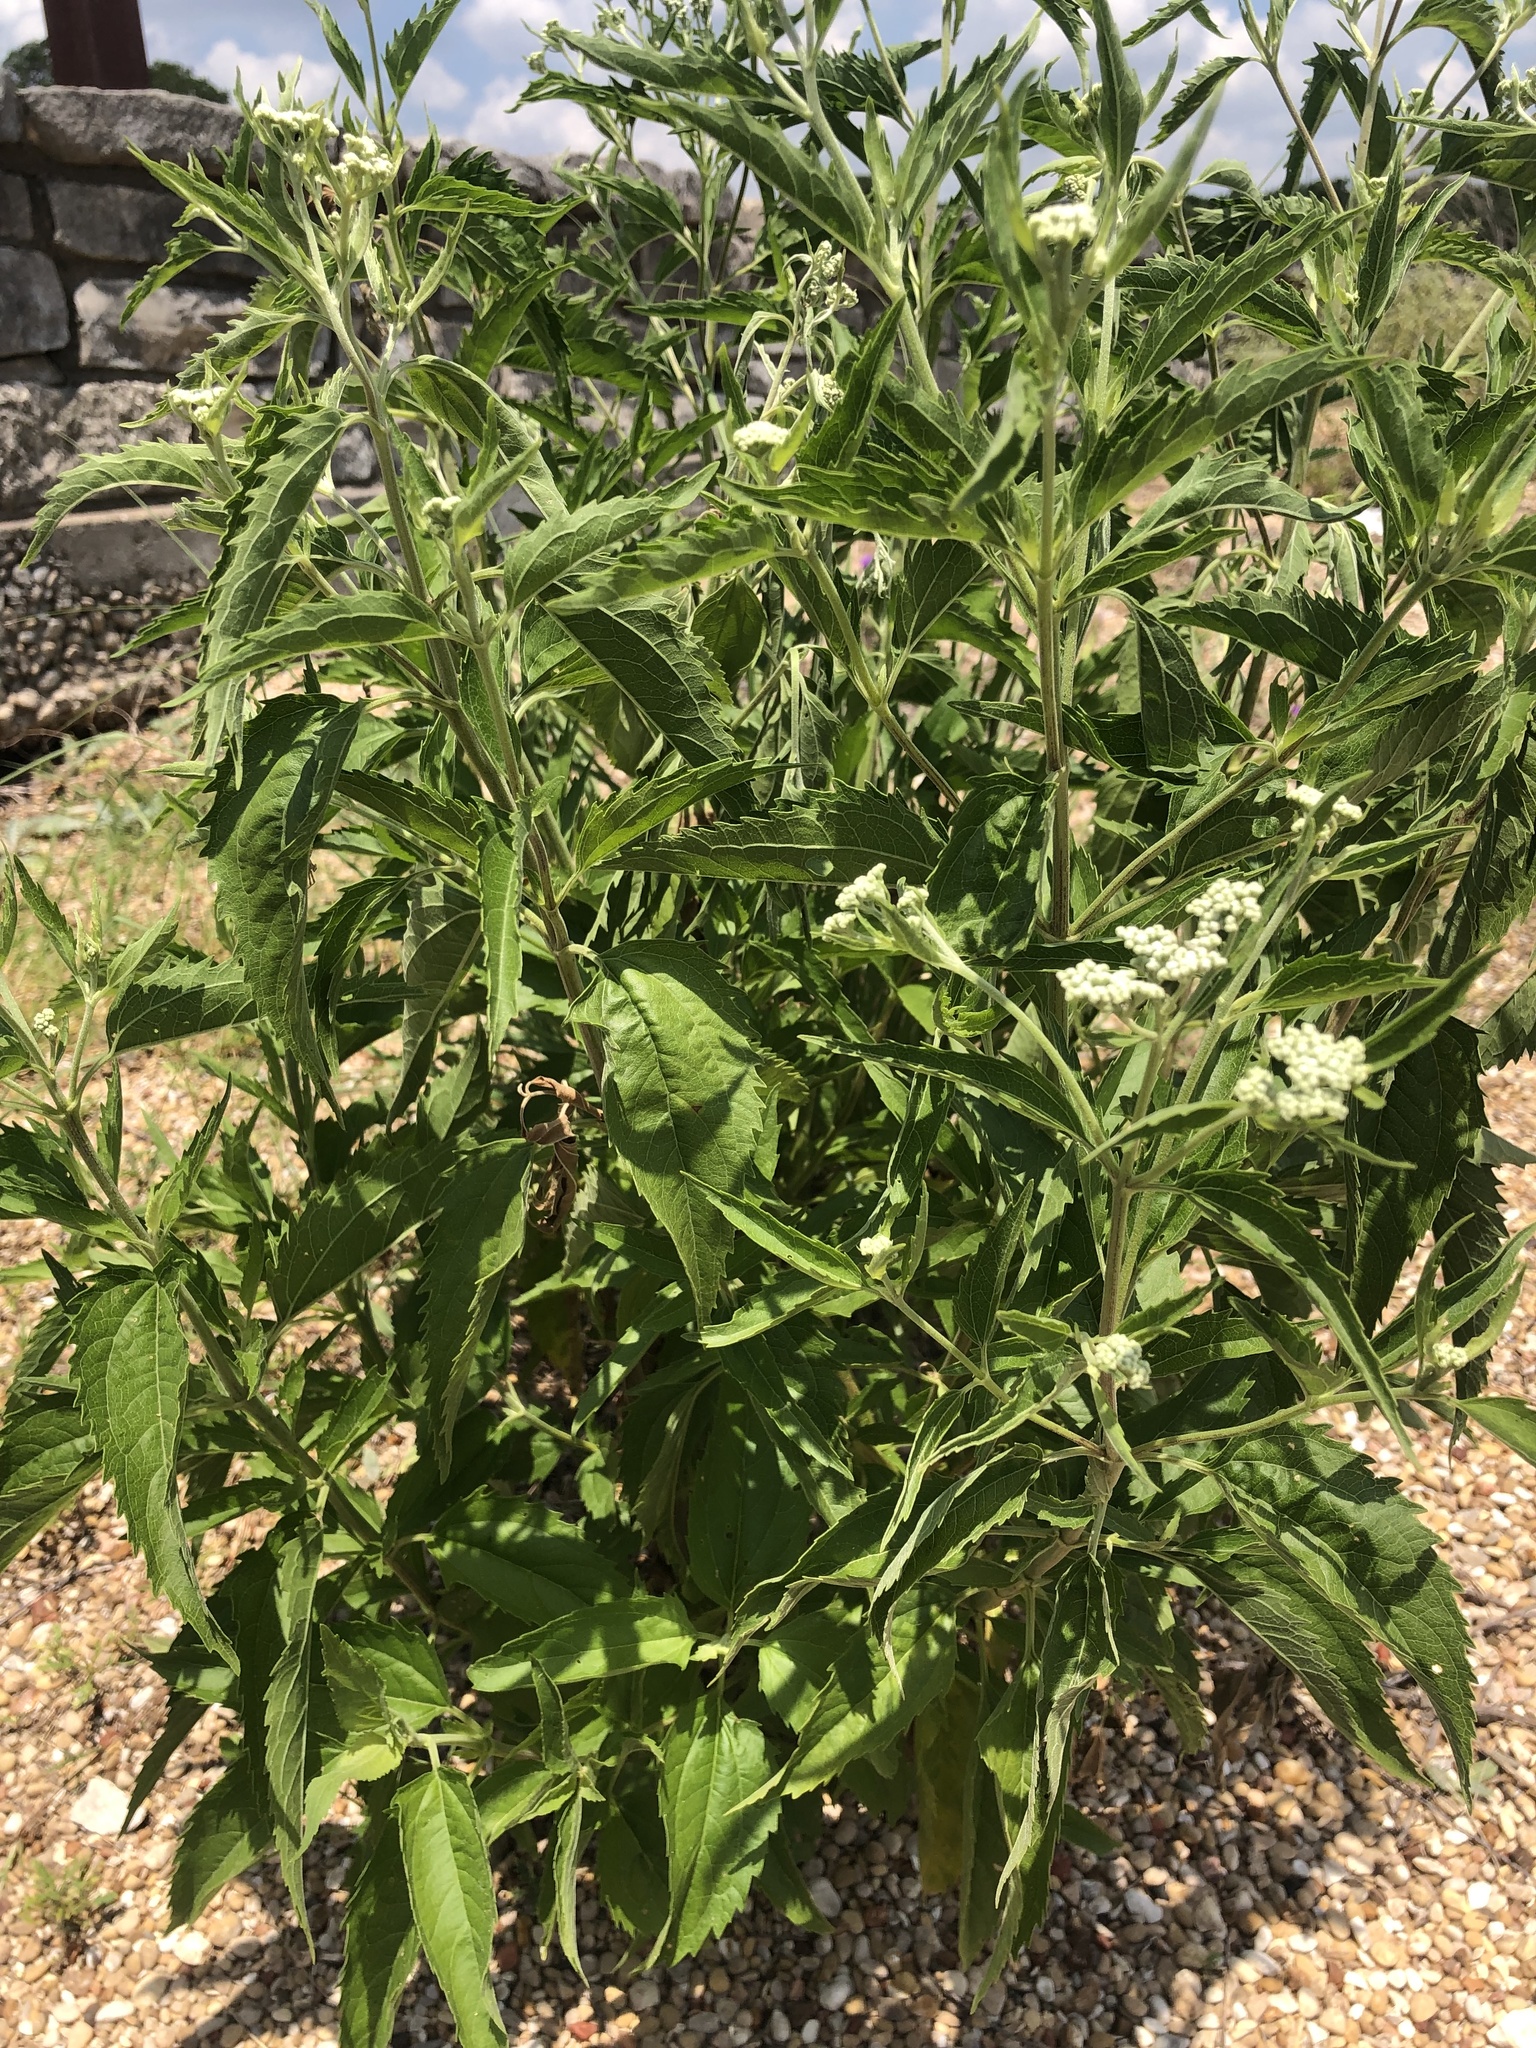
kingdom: Plantae
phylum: Tracheophyta
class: Magnoliopsida
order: Asterales
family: Asteraceae
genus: Eupatorium
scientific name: Eupatorium serotinum
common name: Late boneset
